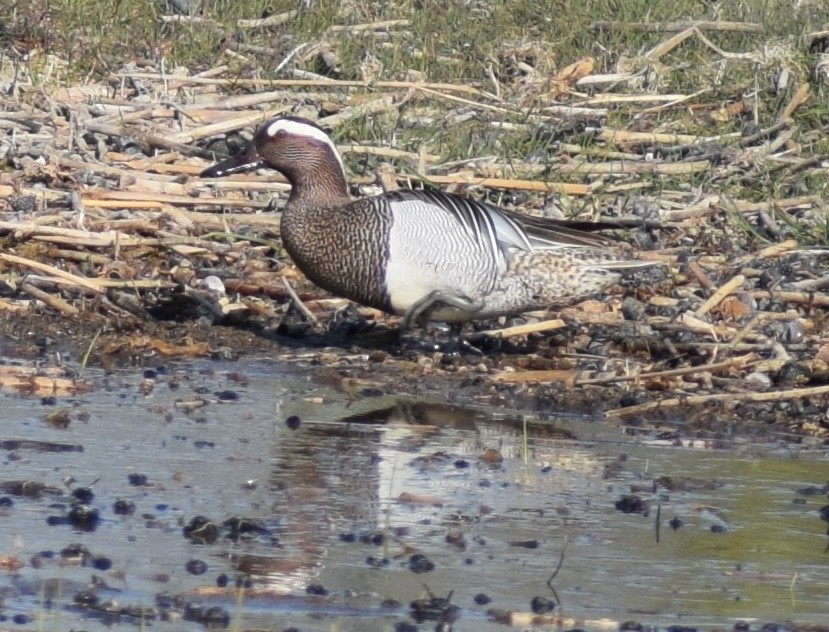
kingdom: Animalia
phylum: Chordata
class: Aves
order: Anseriformes
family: Anatidae
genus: Spatula
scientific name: Spatula querquedula
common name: Garganey
